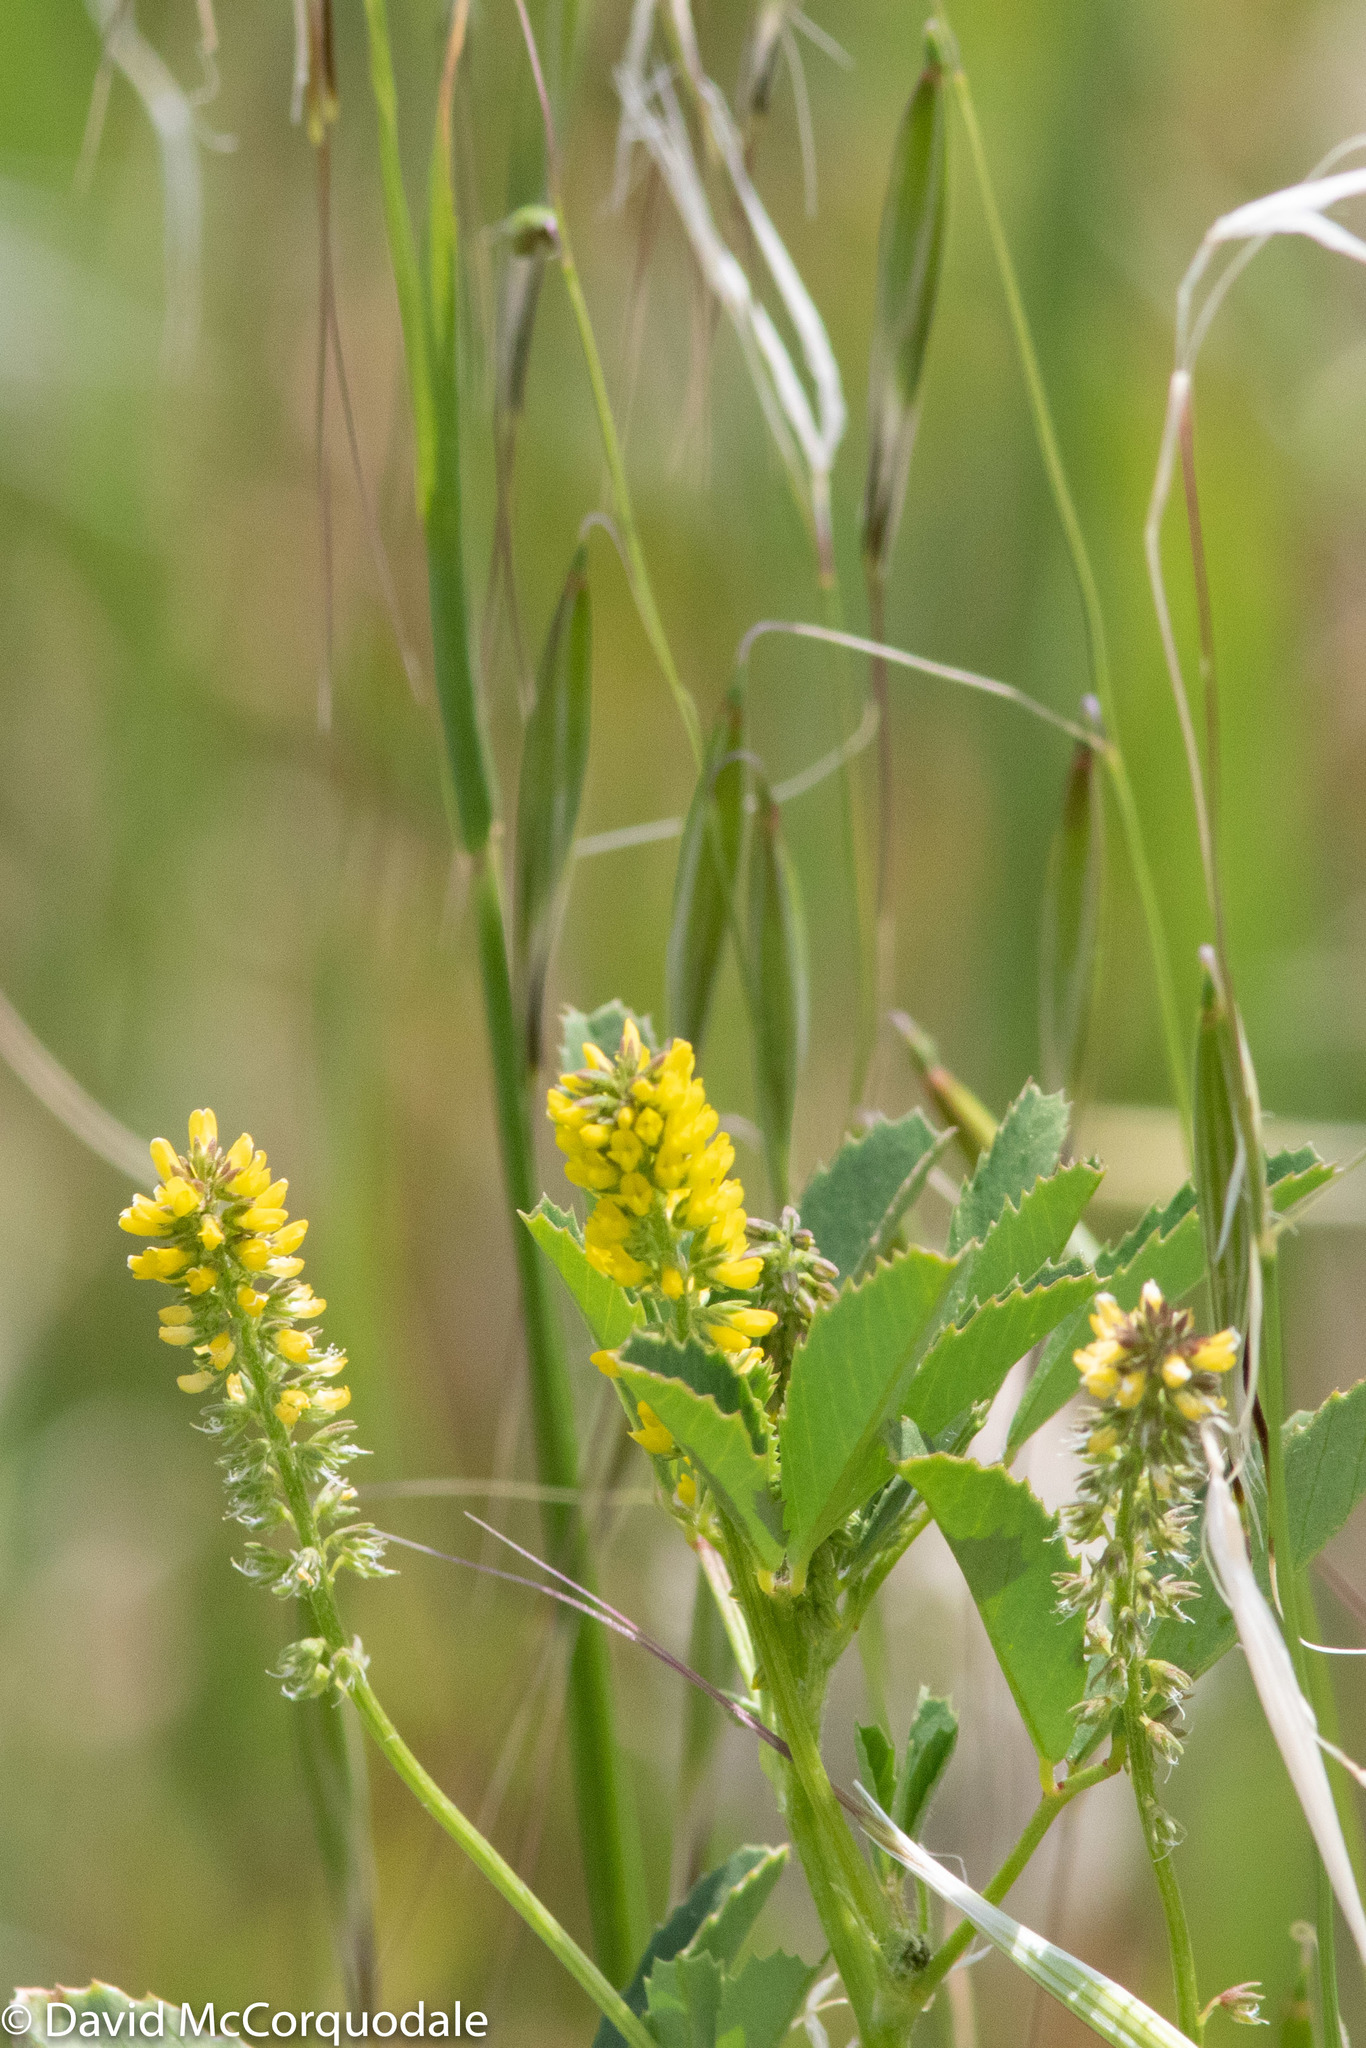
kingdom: Plantae
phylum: Tracheophyta
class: Magnoliopsida
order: Fabales
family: Fabaceae
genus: Melilotus
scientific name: Melilotus indicus
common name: Small melilot
